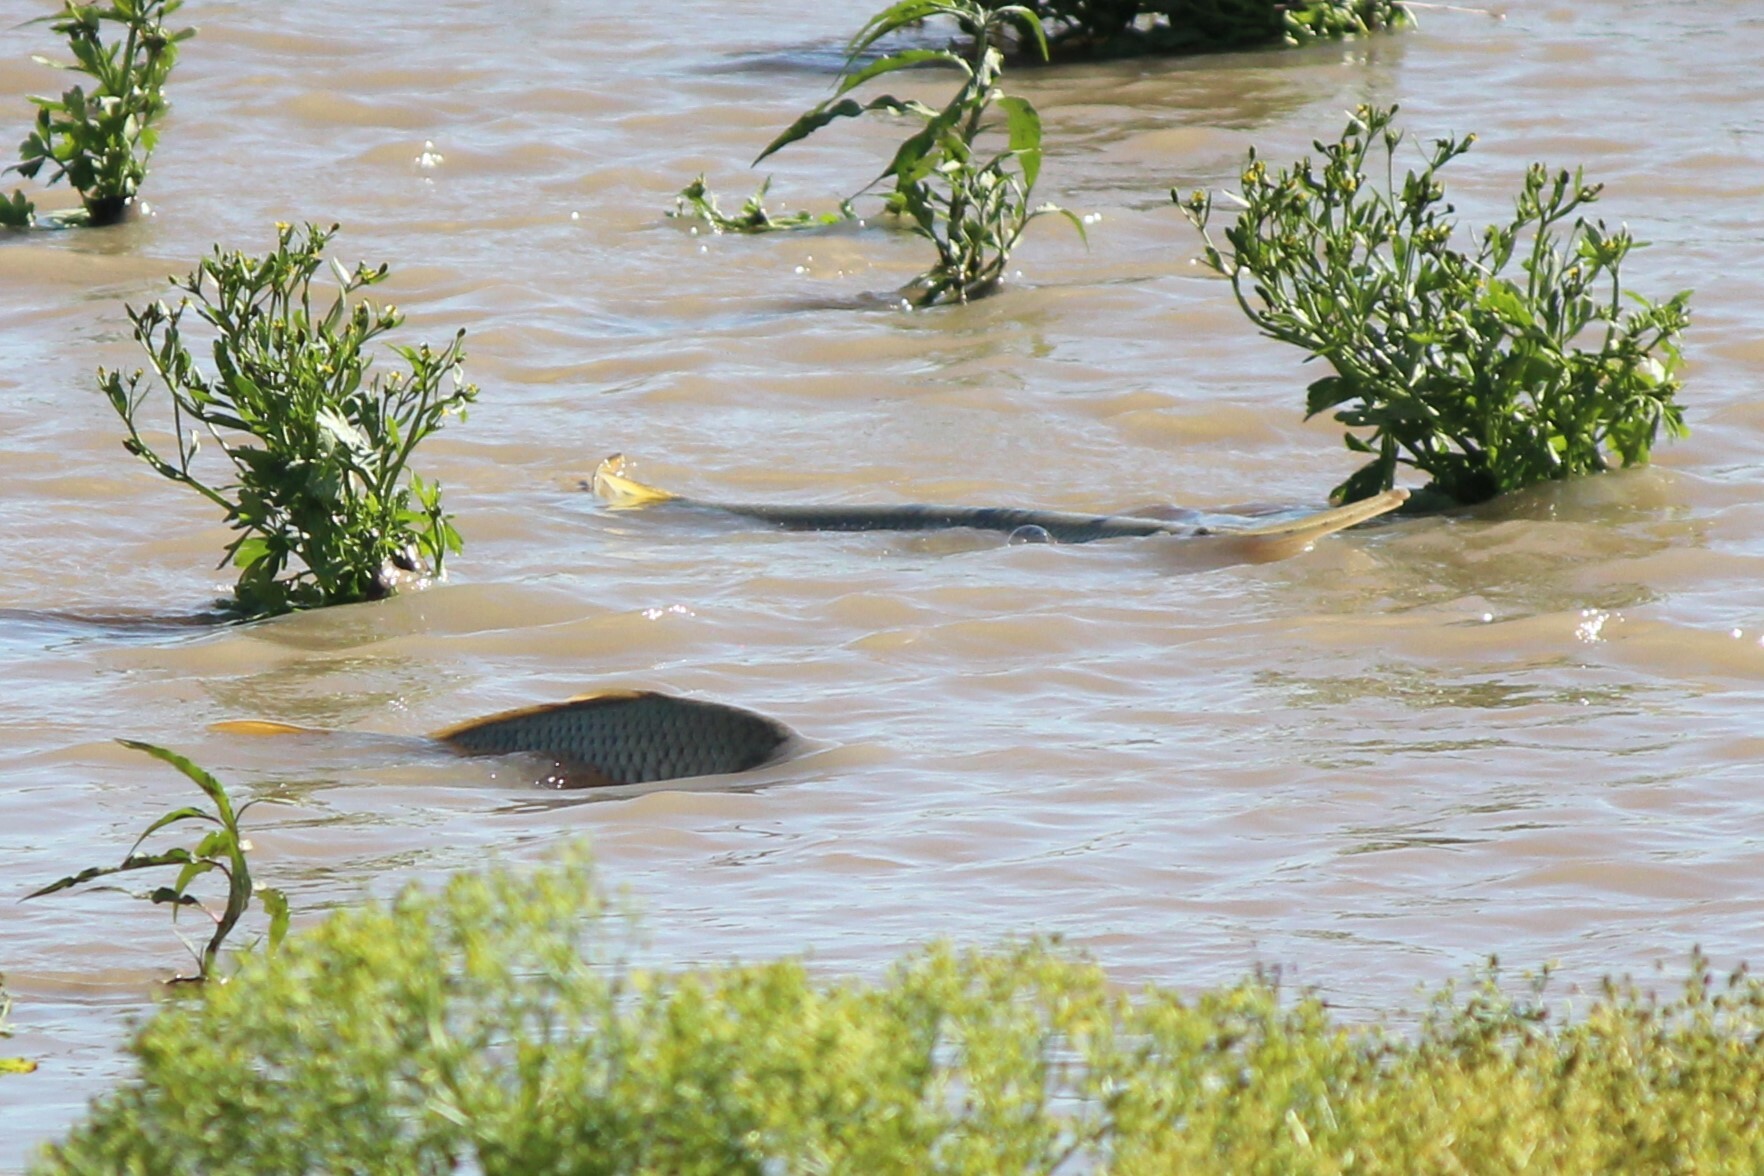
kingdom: Animalia
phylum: Chordata
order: Lepisosteiformes
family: Lepisosteidae
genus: Lepisosteus
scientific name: Lepisosteus osseus
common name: Longnose gar
